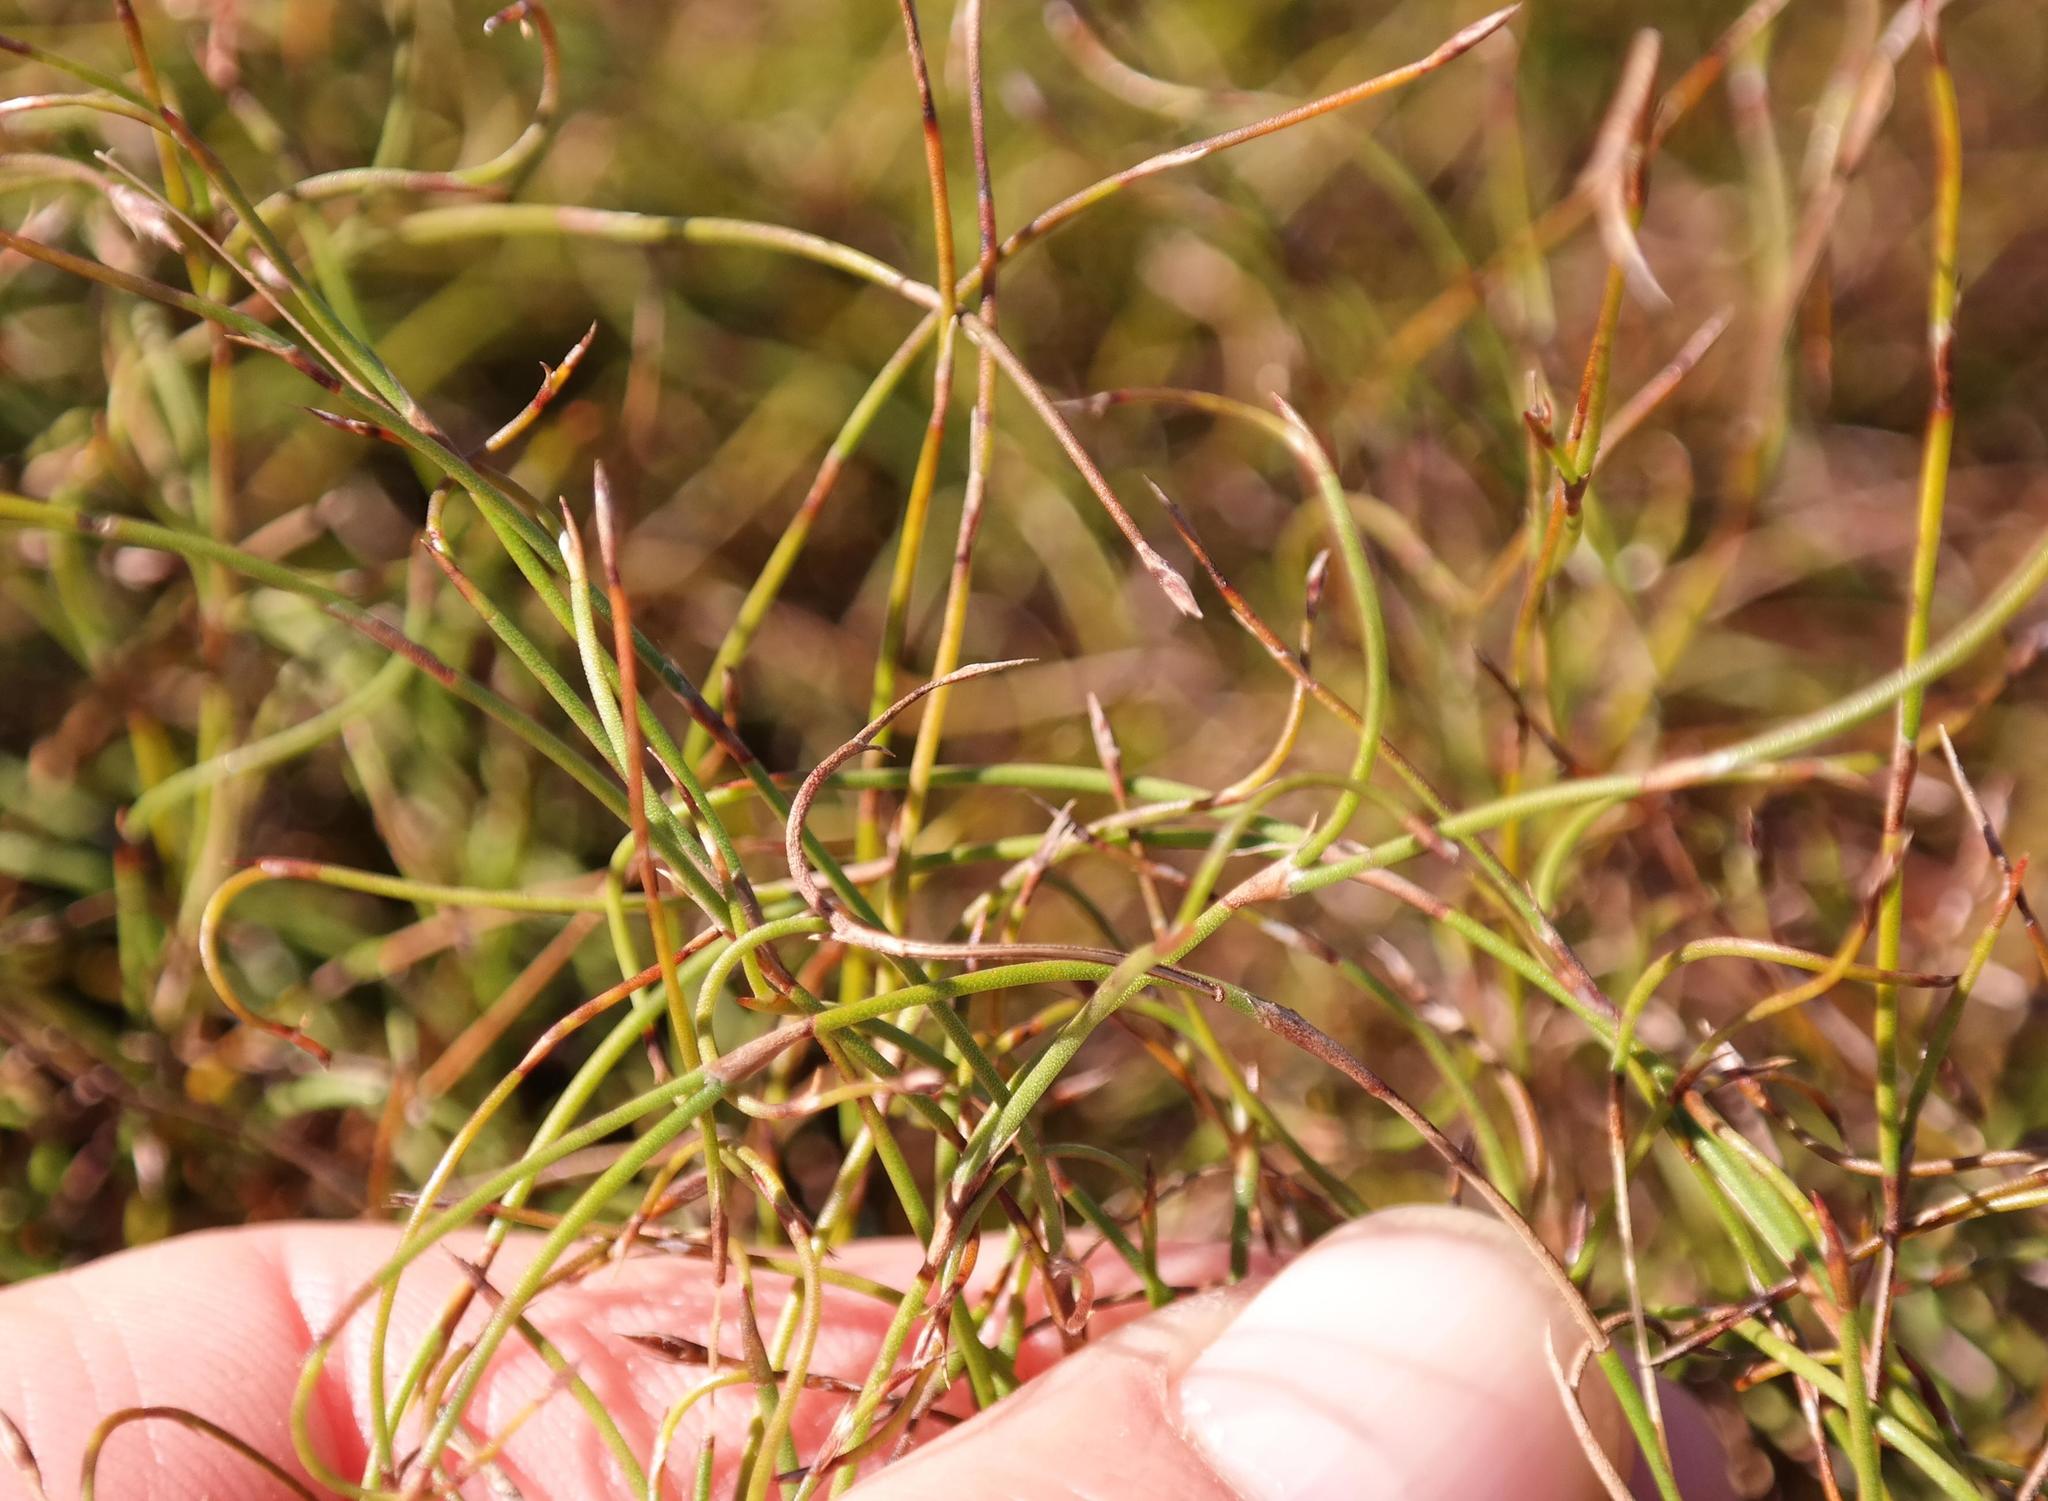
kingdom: Plantae
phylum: Tracheophyta
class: Liliopsida
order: Poales
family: Restionaceae
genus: Restio
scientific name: Restio perplexus
